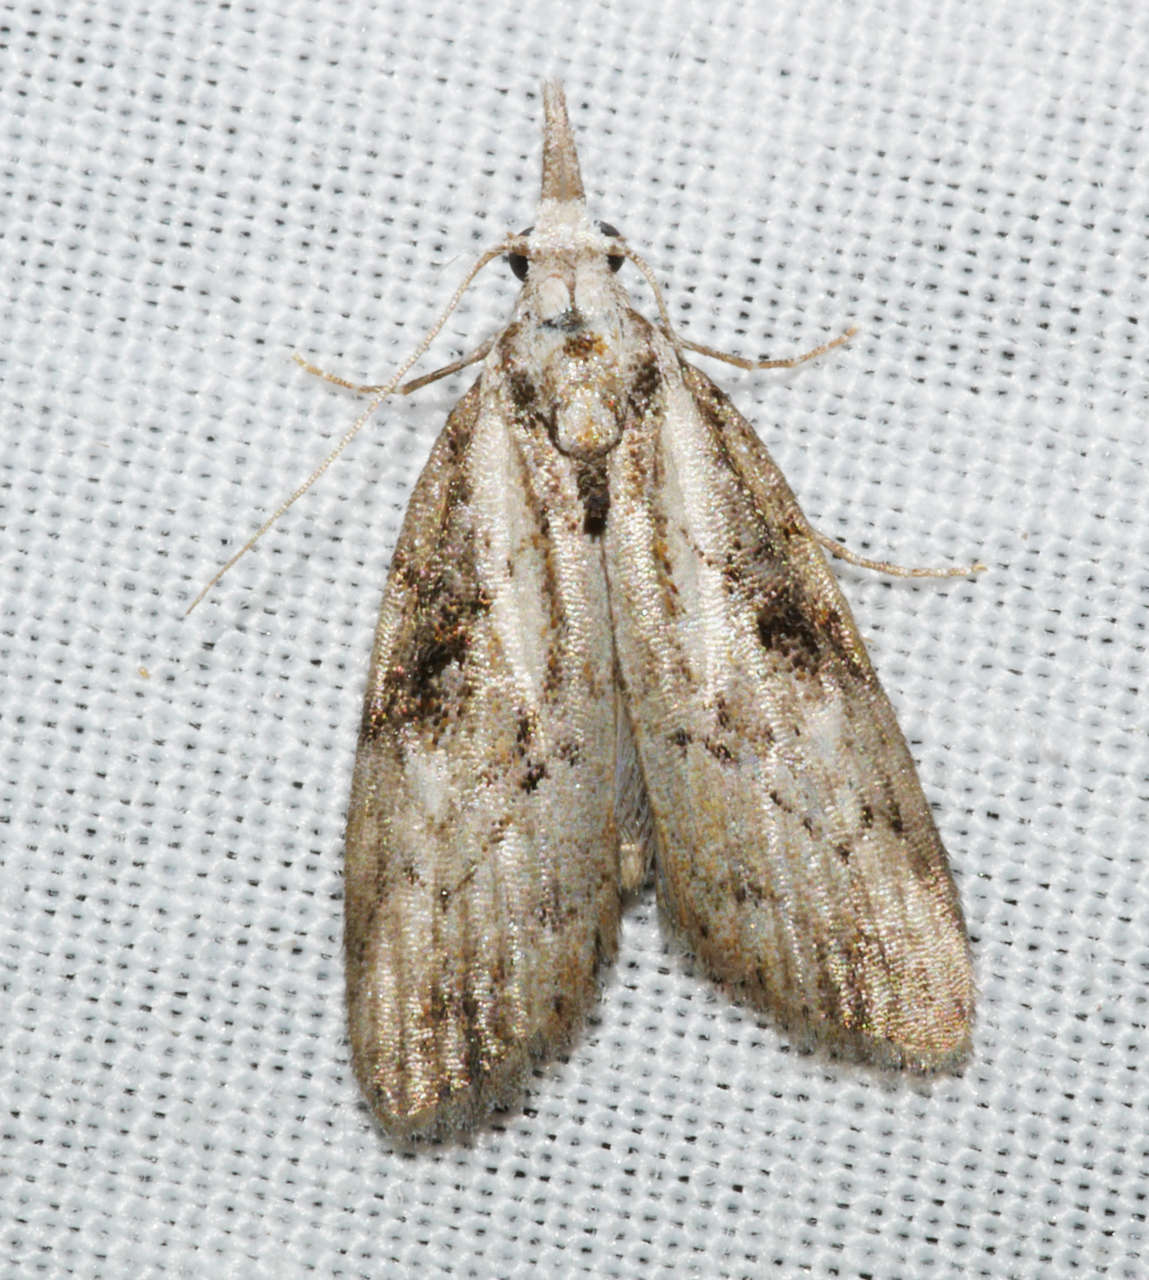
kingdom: Animalia
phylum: Arthropoda
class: Insecta
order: Lepidoptera
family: Nolidae
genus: Nola
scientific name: Nola biguttalis
